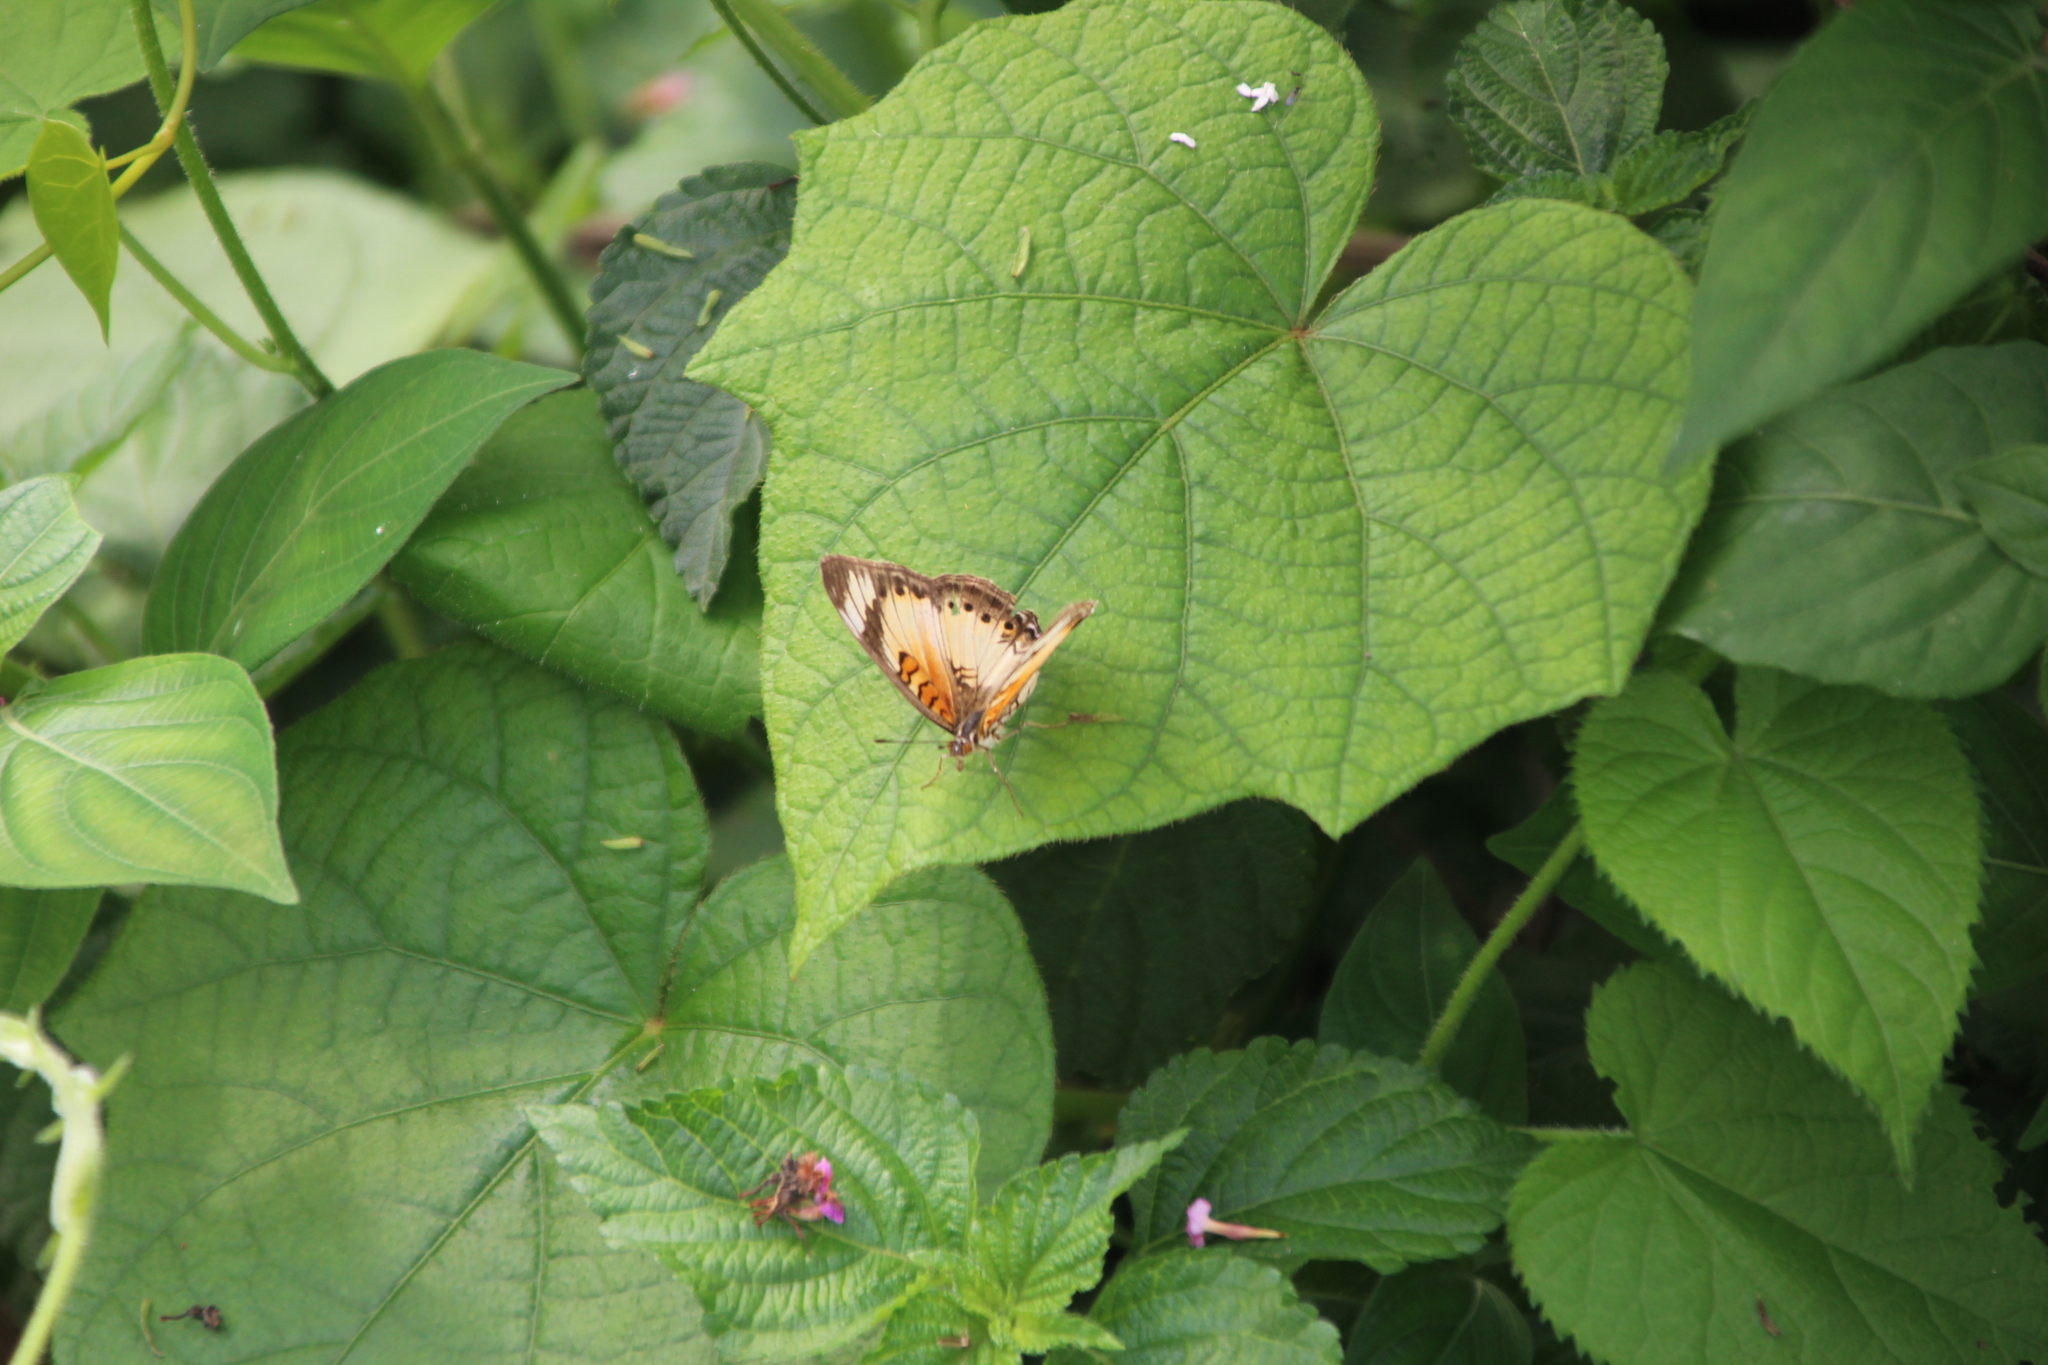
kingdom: Animalia
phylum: Arthropoda
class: Insecta
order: Lepidoptera
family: Nymphalidae
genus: Junonia
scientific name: Junonia sophia
